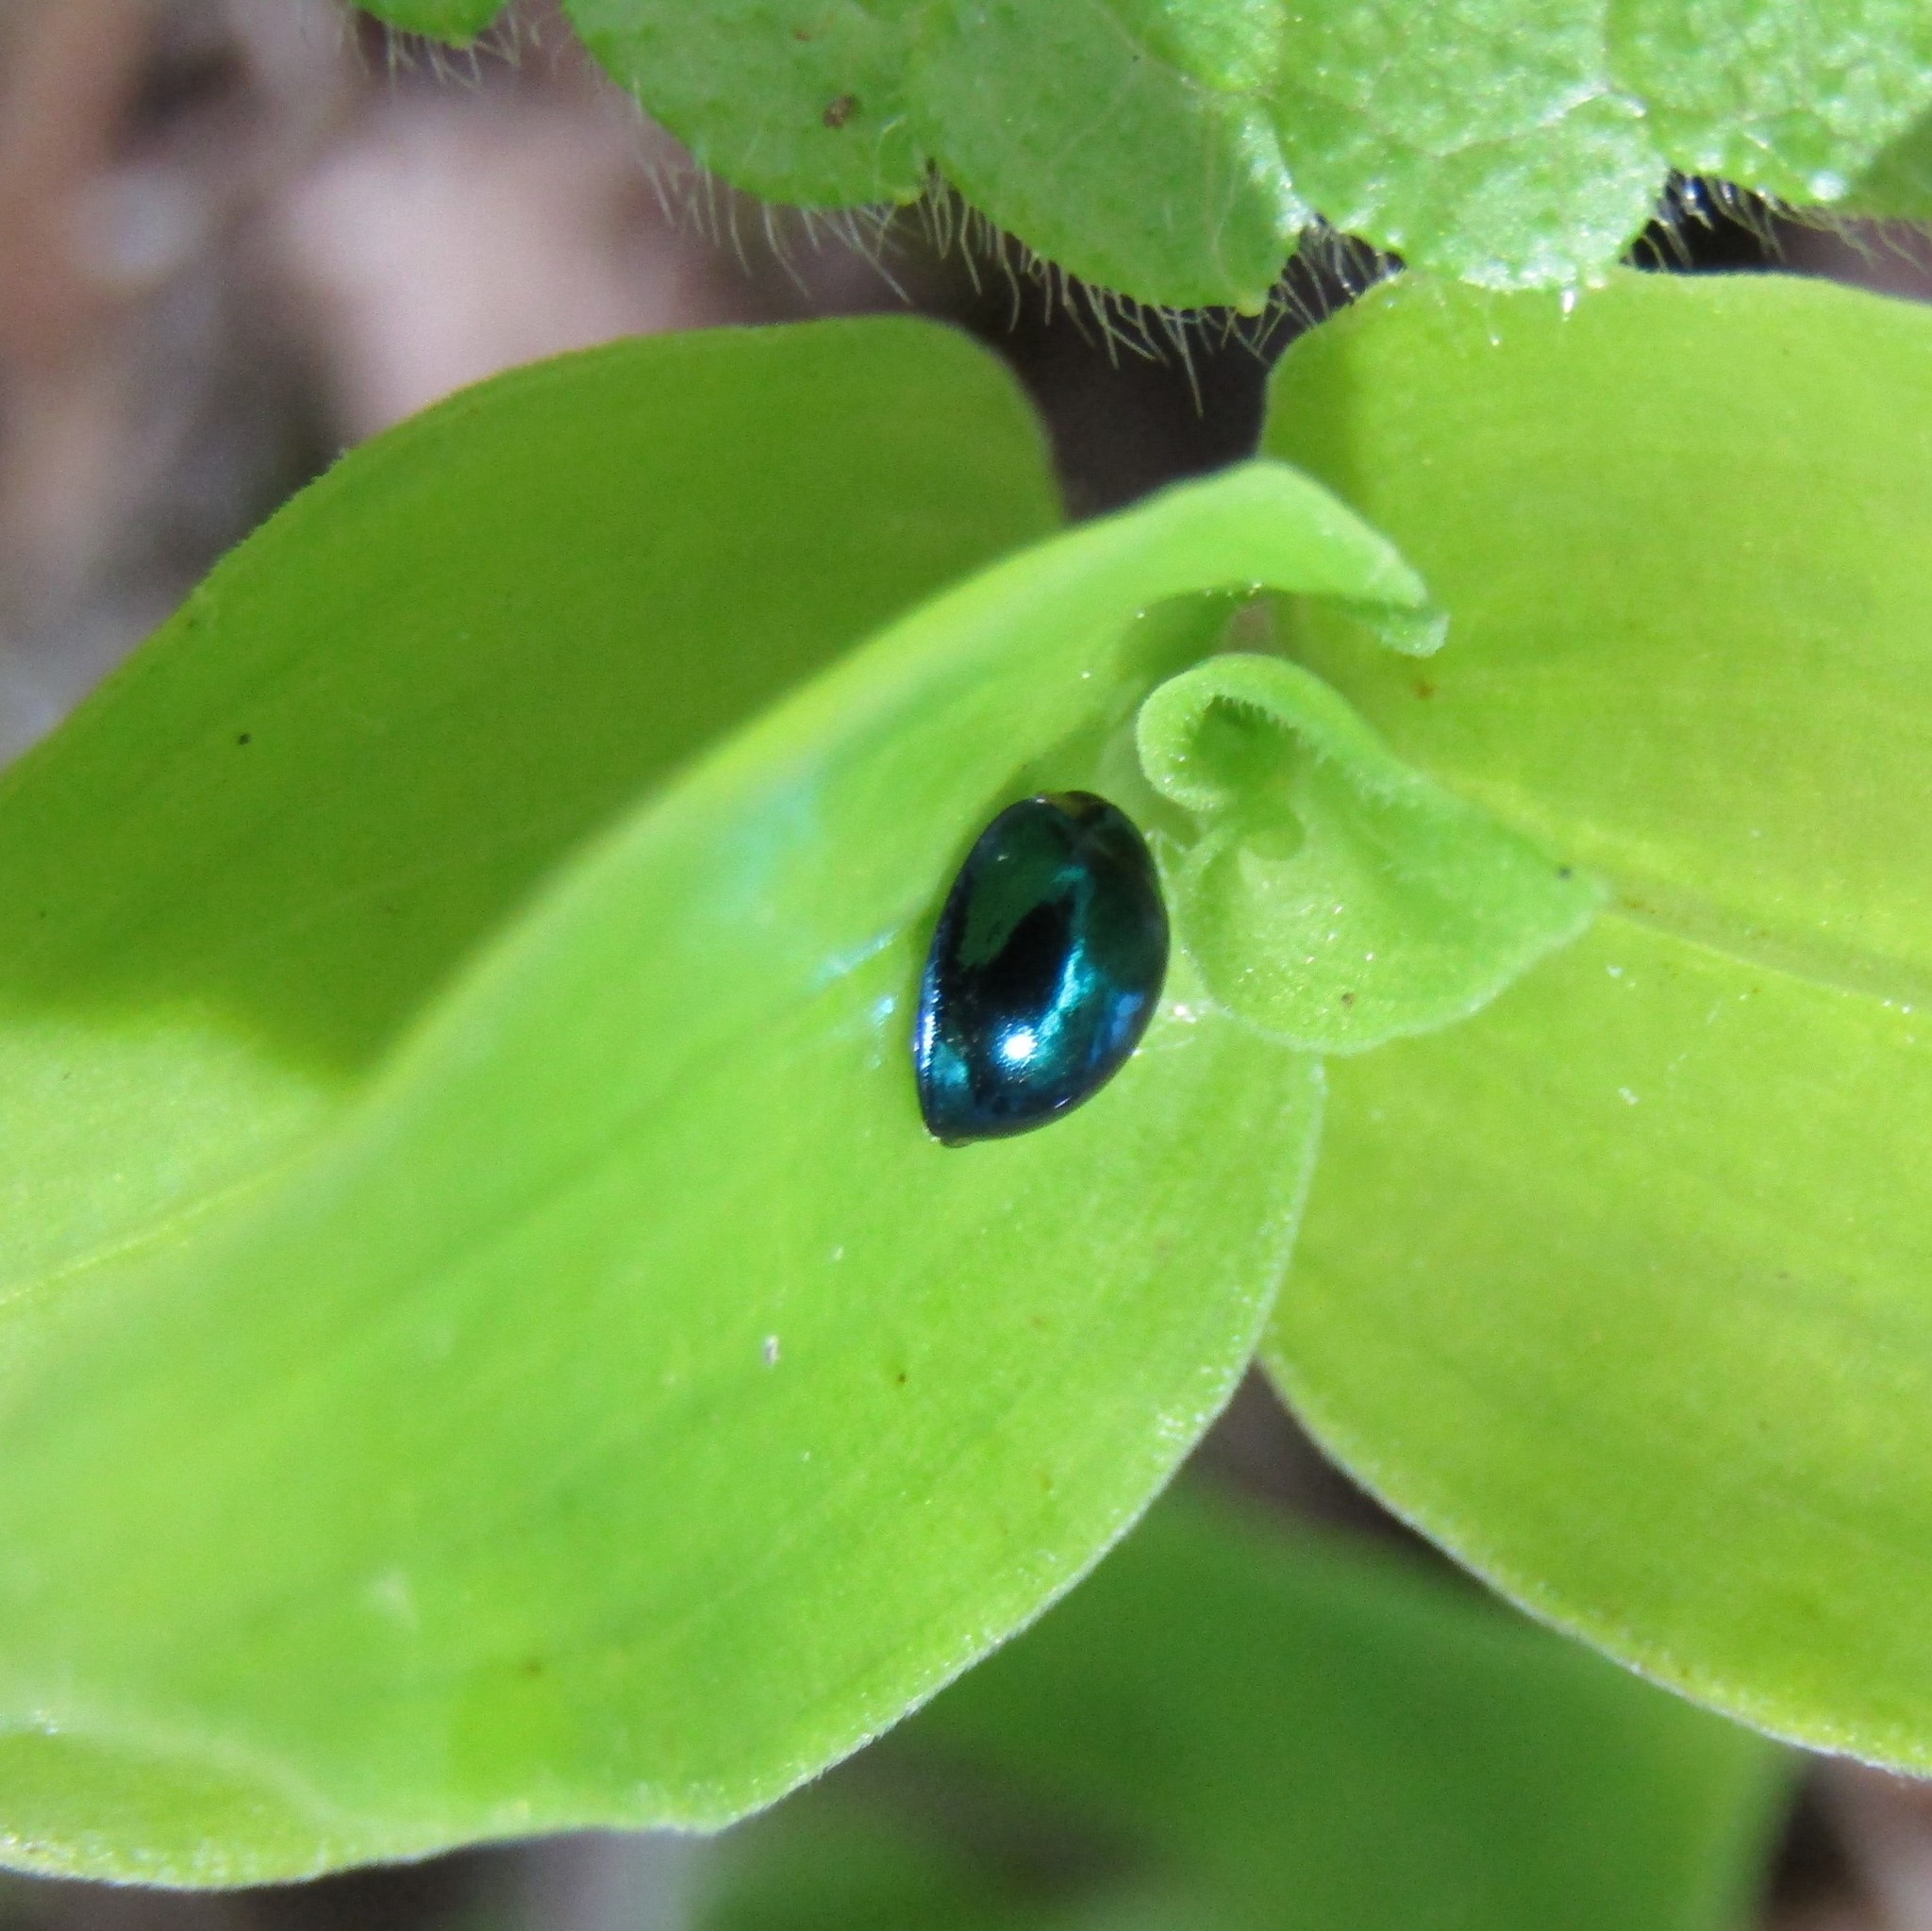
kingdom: Animalia
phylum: Arthropoda
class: Insecta
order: Coleoptera
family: Coccinellidae
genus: Halmus
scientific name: Halmus chalybeus
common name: Steel blue ladybird beetle
